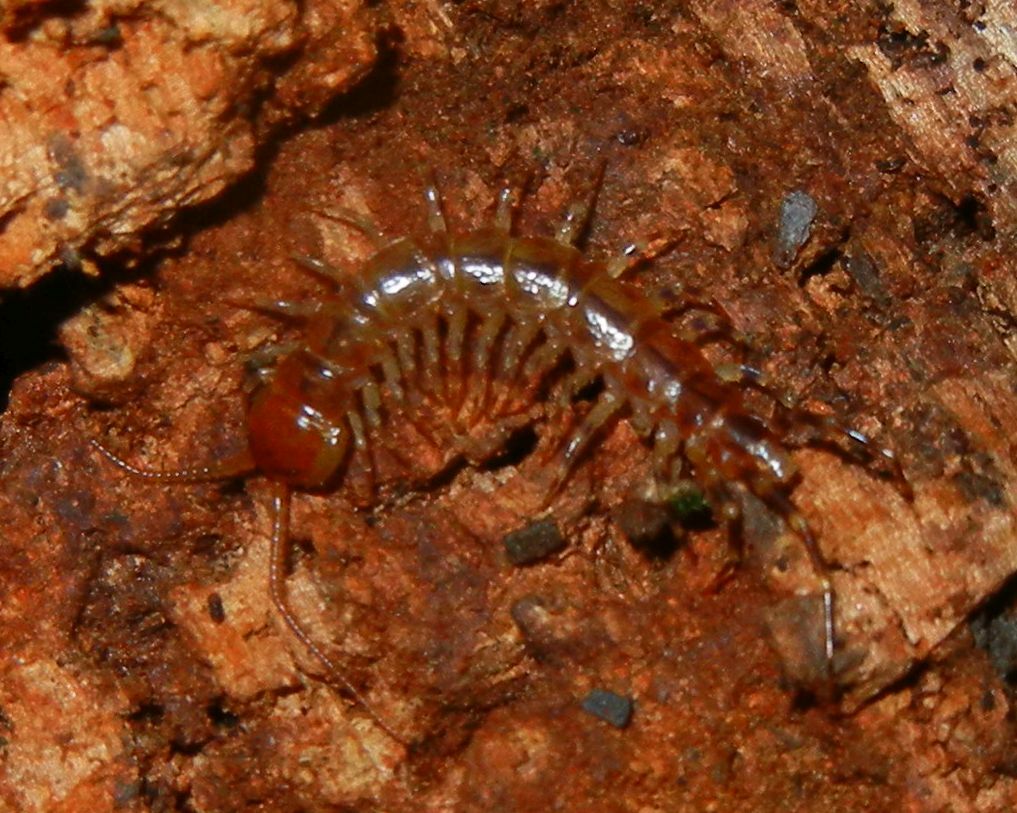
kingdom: Animalia
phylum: Arthropoda
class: Chilopoda
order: Lithobiomorpha
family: Lithobiidae
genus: Lithobius
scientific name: Lithobius variegatus
